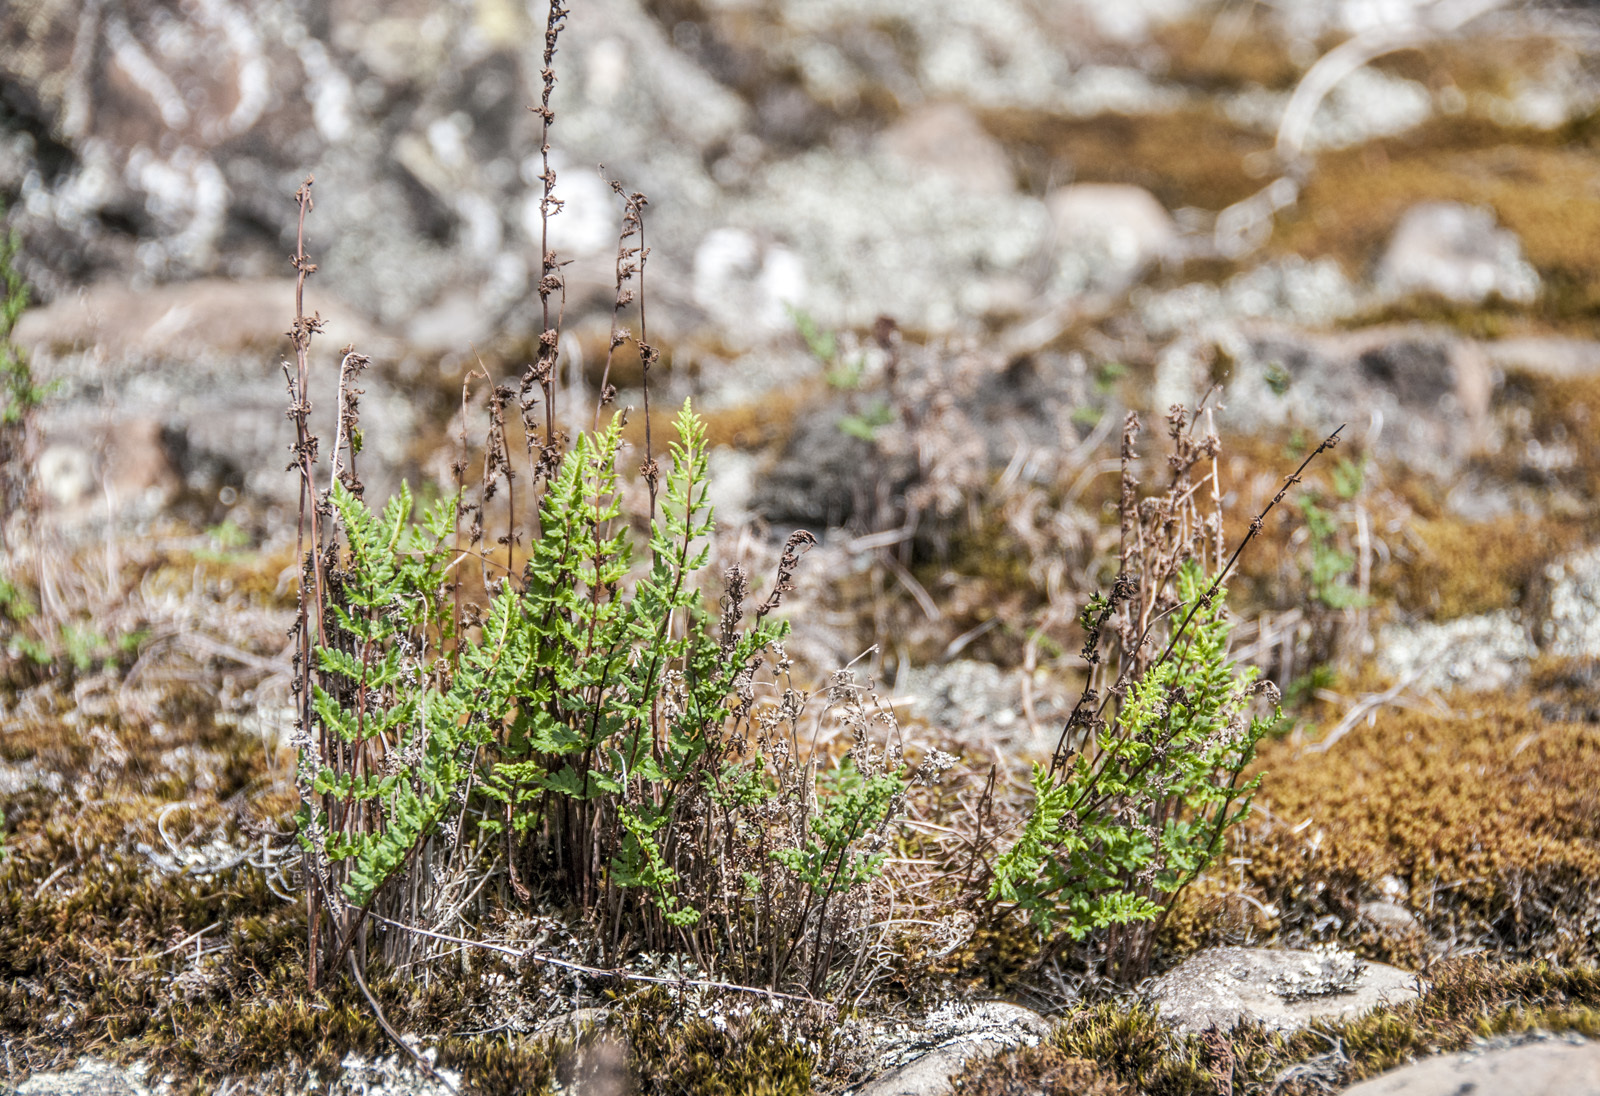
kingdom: Plantae
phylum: Tracheophyta
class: Polypodiopsida
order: Polypodiales
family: Pteridaceae
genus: Cheilanthes
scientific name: Cheilanthes sieberi
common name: Mulga fern
